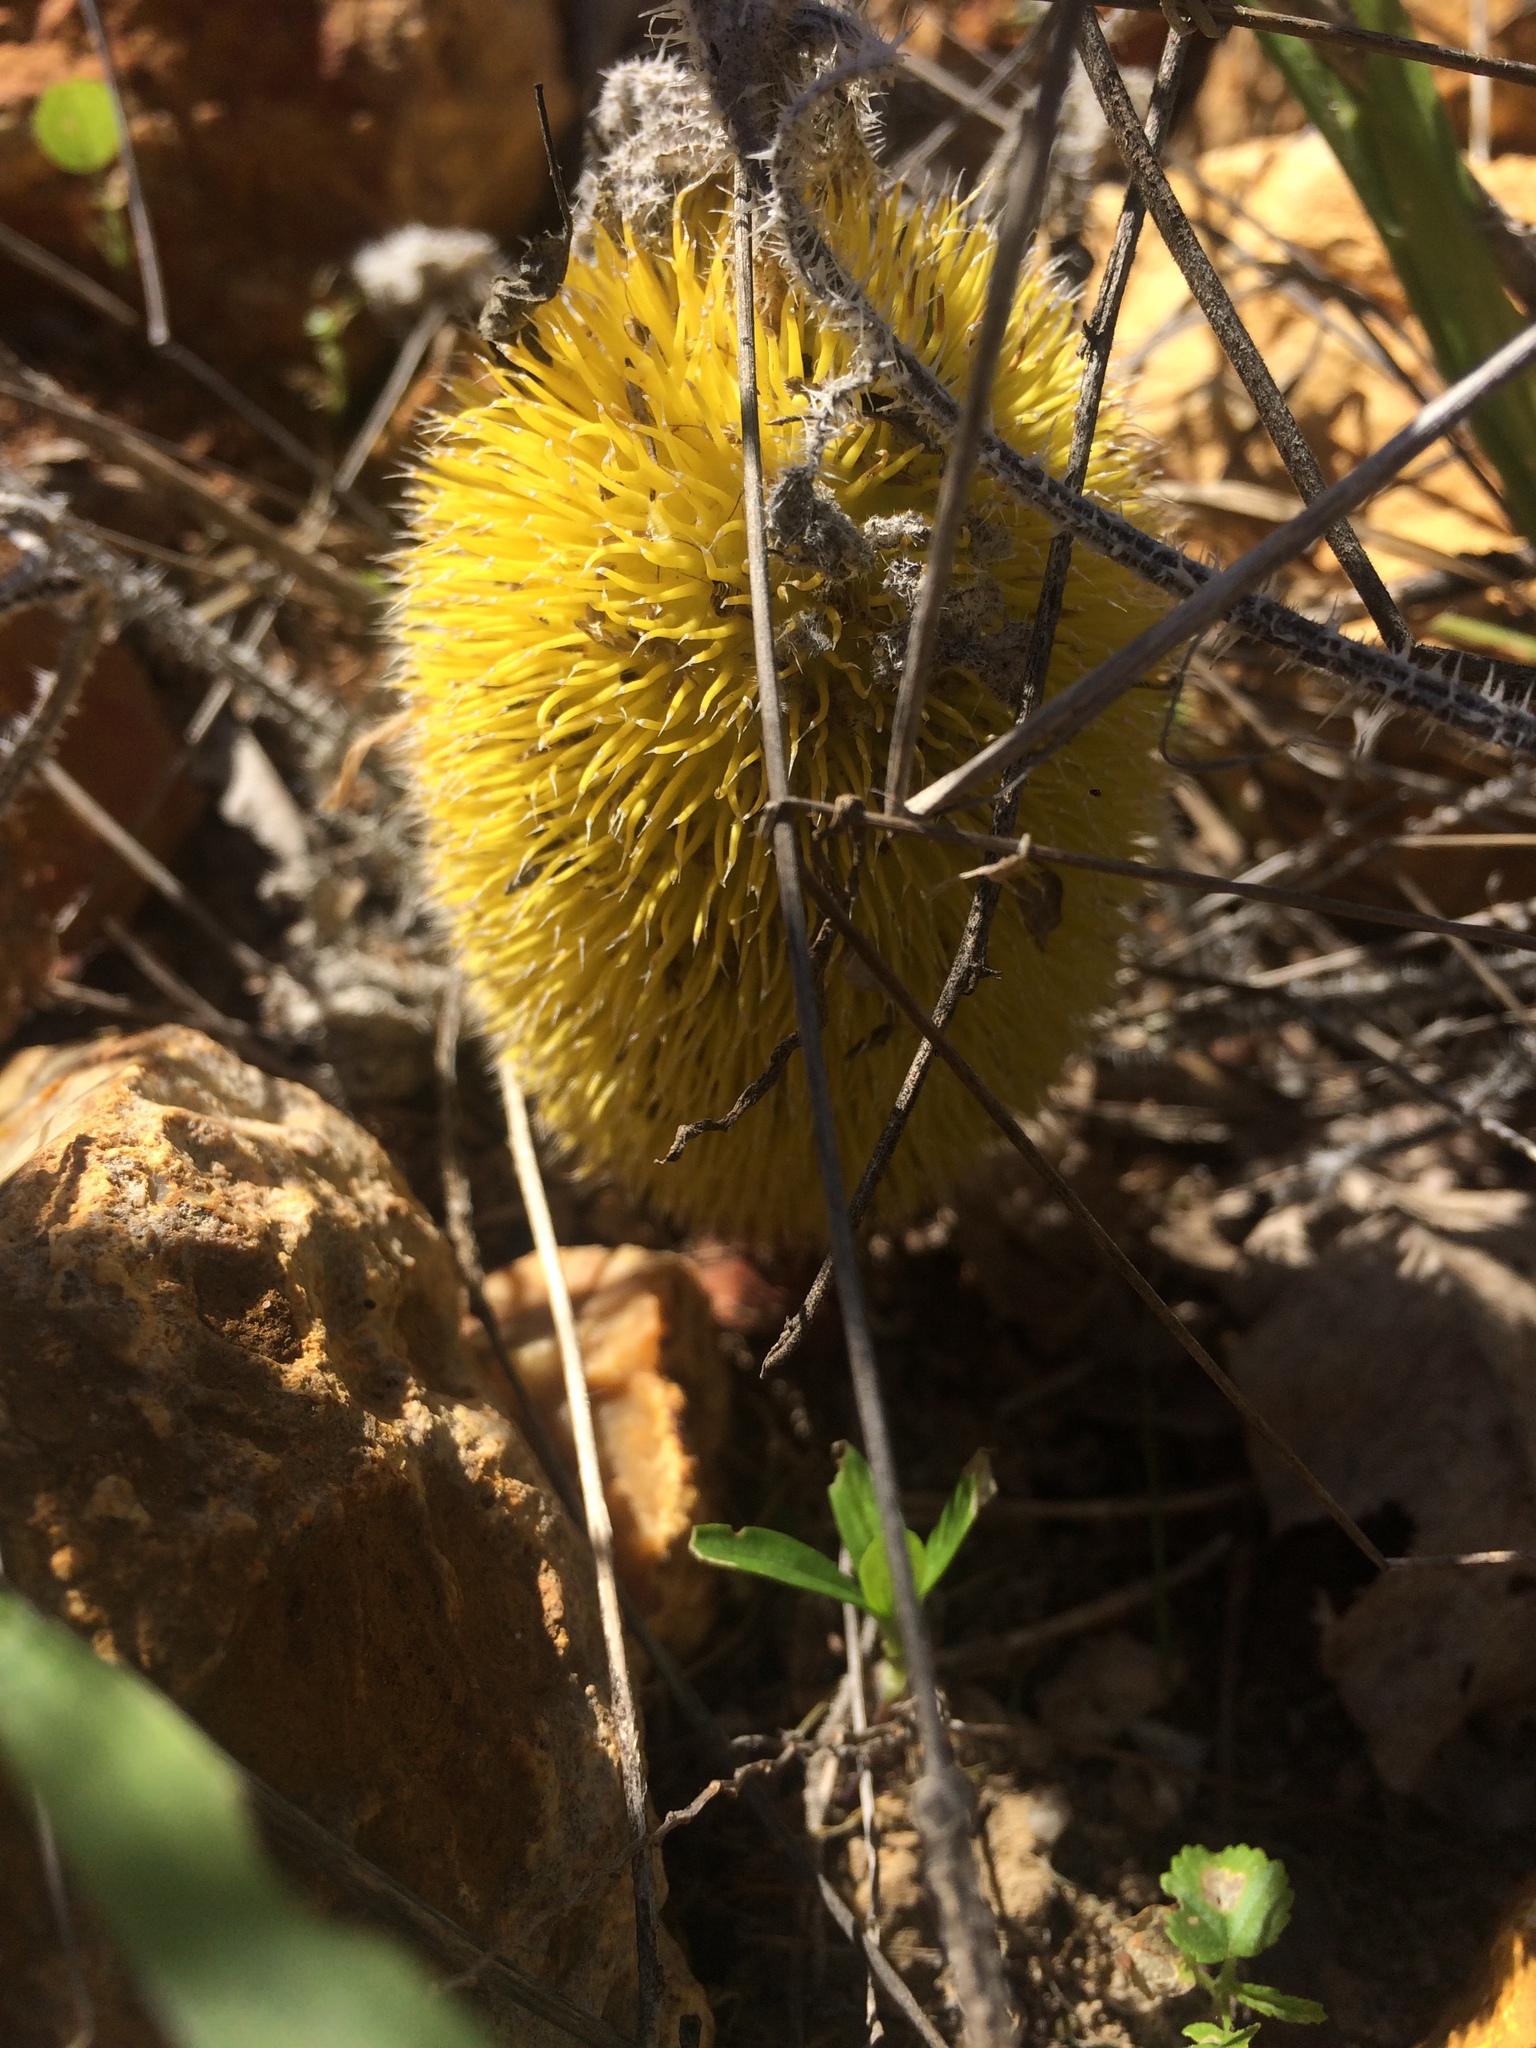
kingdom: Plantae
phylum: Tracheophyta
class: Magnoliopsida
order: Cucurbitales
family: Cucurbitaceae
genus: Cucumis
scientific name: Cucumis dipsaceus
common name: Hedgehog gourd
